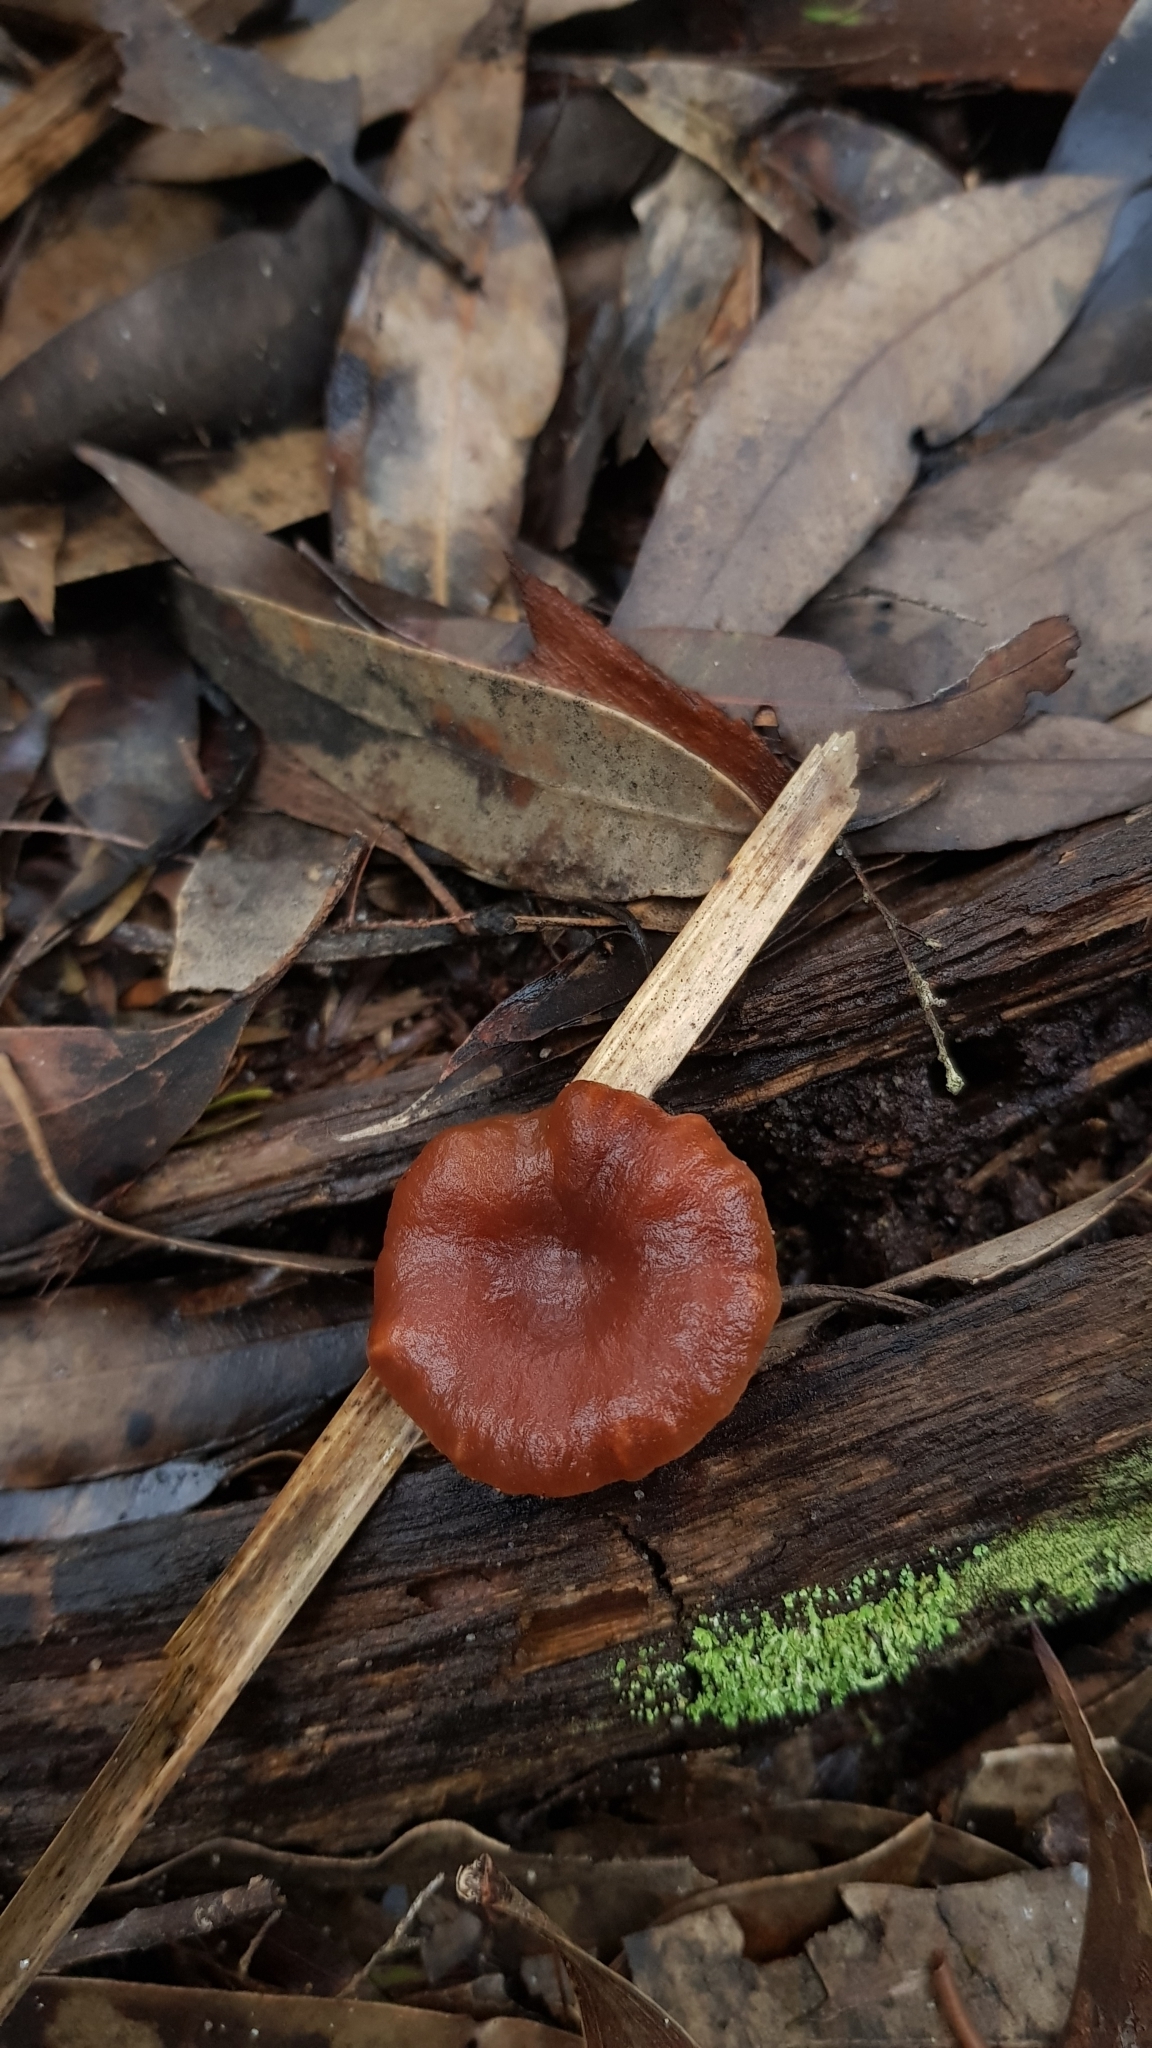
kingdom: Fungi
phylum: Basidiomycota
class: Agaricomycetes
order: Russulales
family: Russulaceae
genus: Lactarius
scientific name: Lactarius eucalypti
